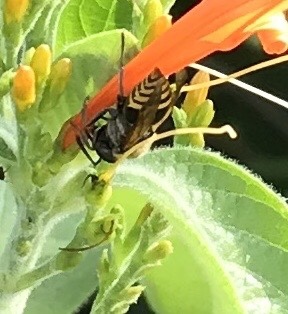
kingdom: Animalia
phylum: Arthropoda
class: Insecta
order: Hymenoptera
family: Vespidae
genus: Brachygastra
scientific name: Brachygastra mellifica
